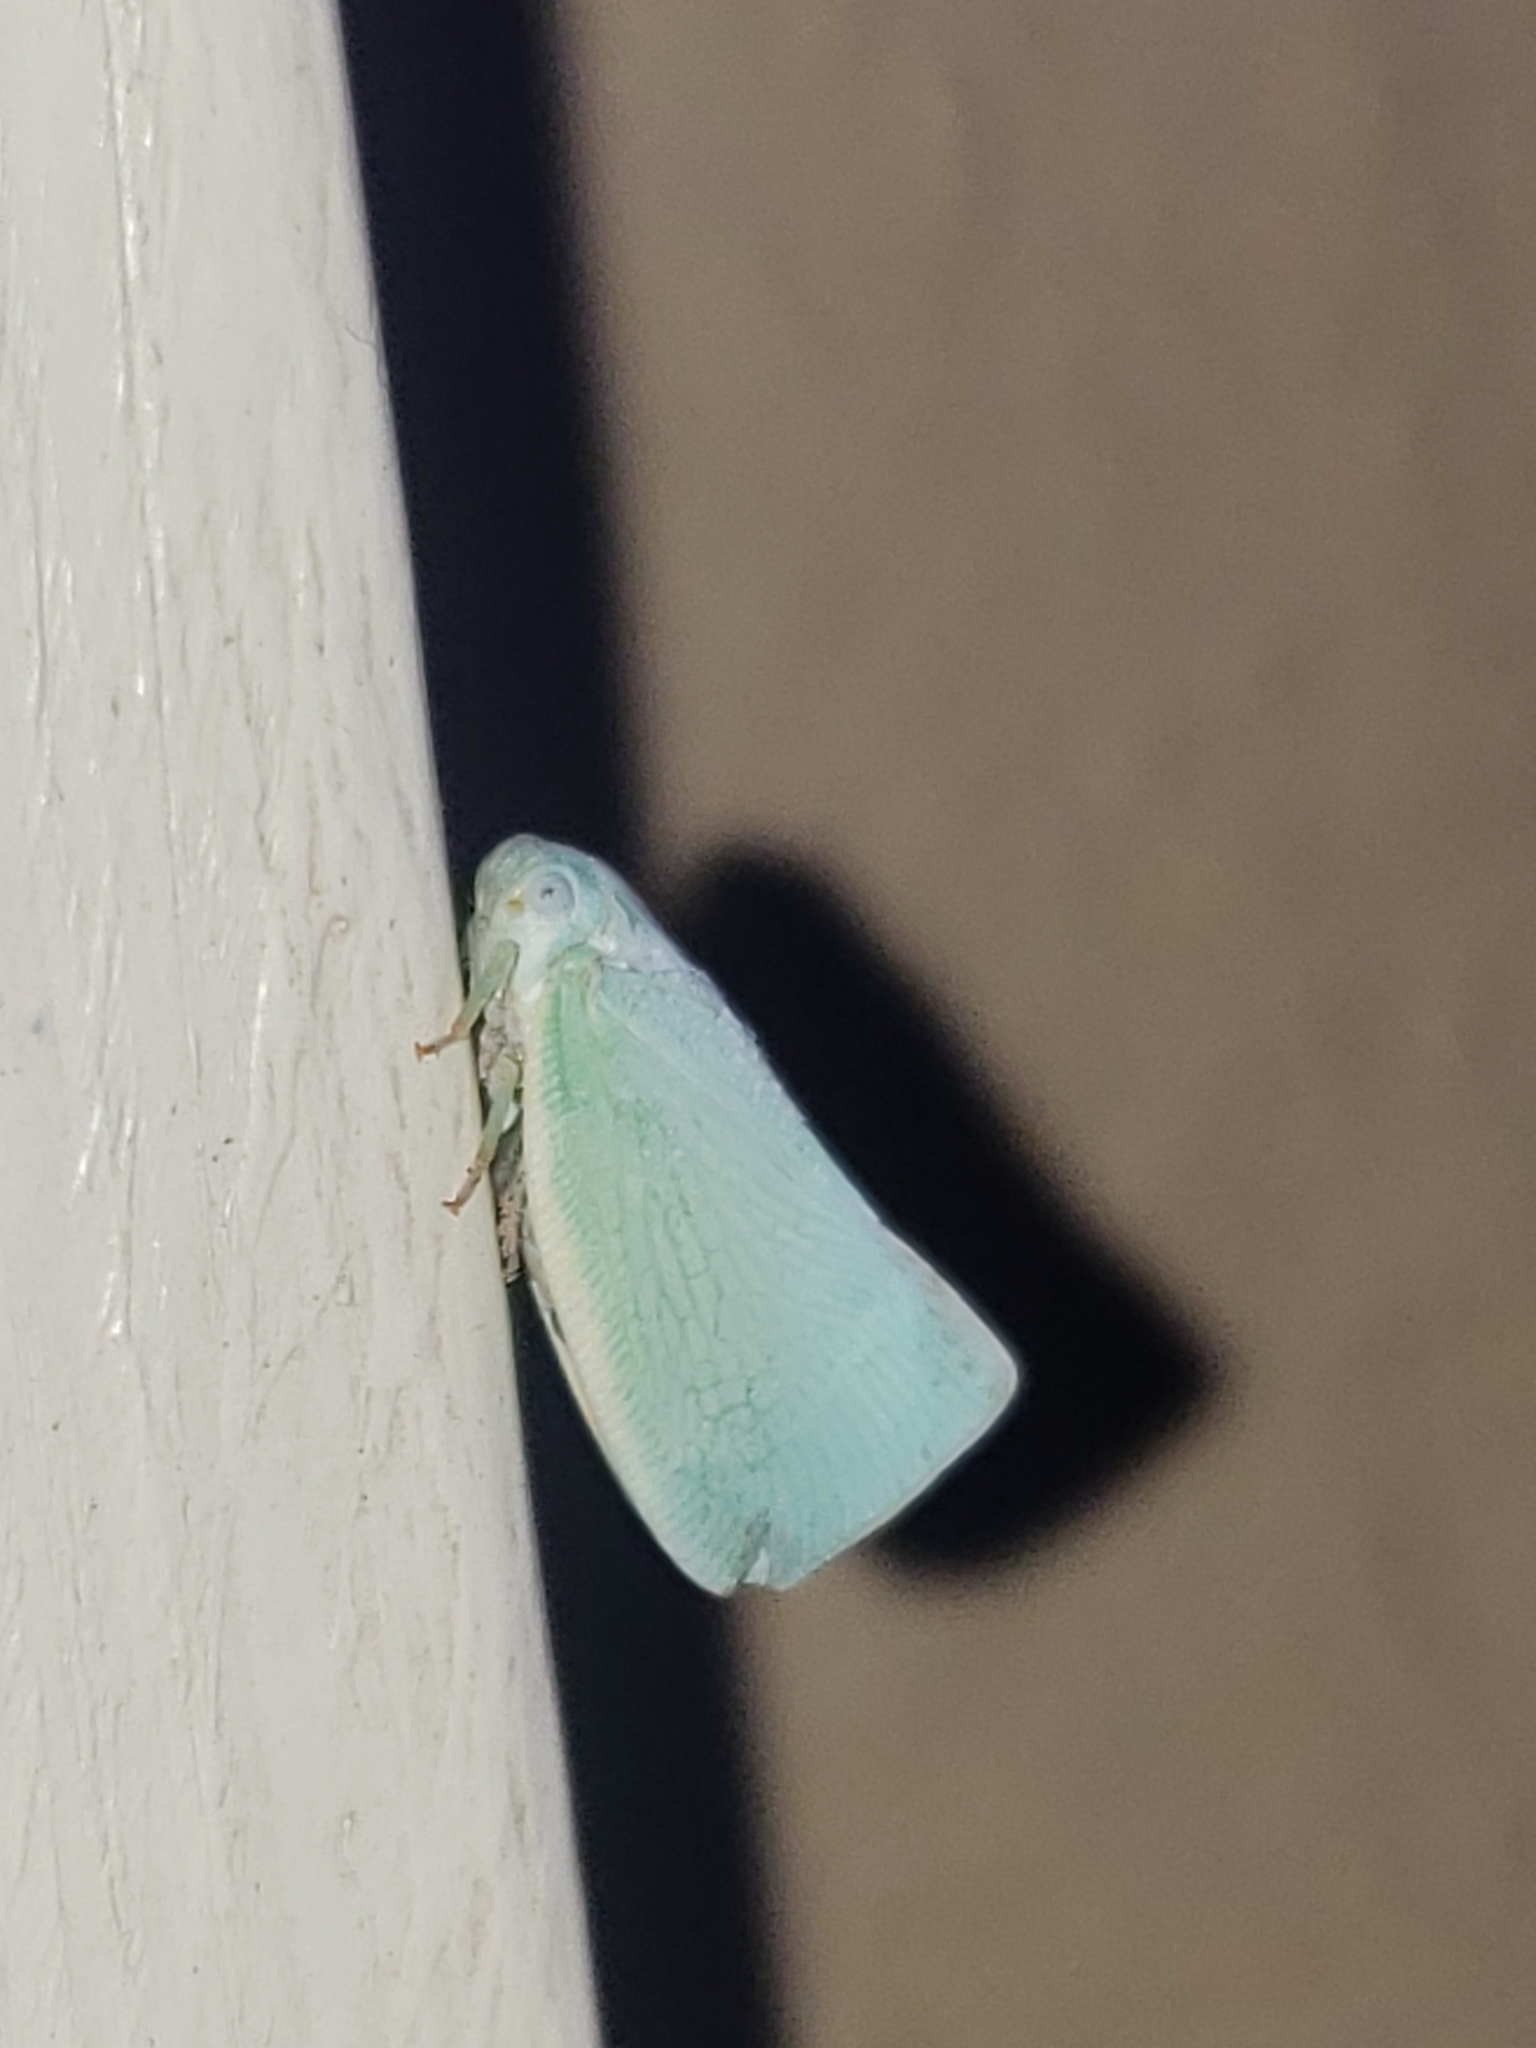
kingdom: Animalia
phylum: Arthropoda
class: Insecta
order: Hemiptera
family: Flatidae
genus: Flatormenis
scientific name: Flatormenis proxima
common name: Northern flatid planthopper
